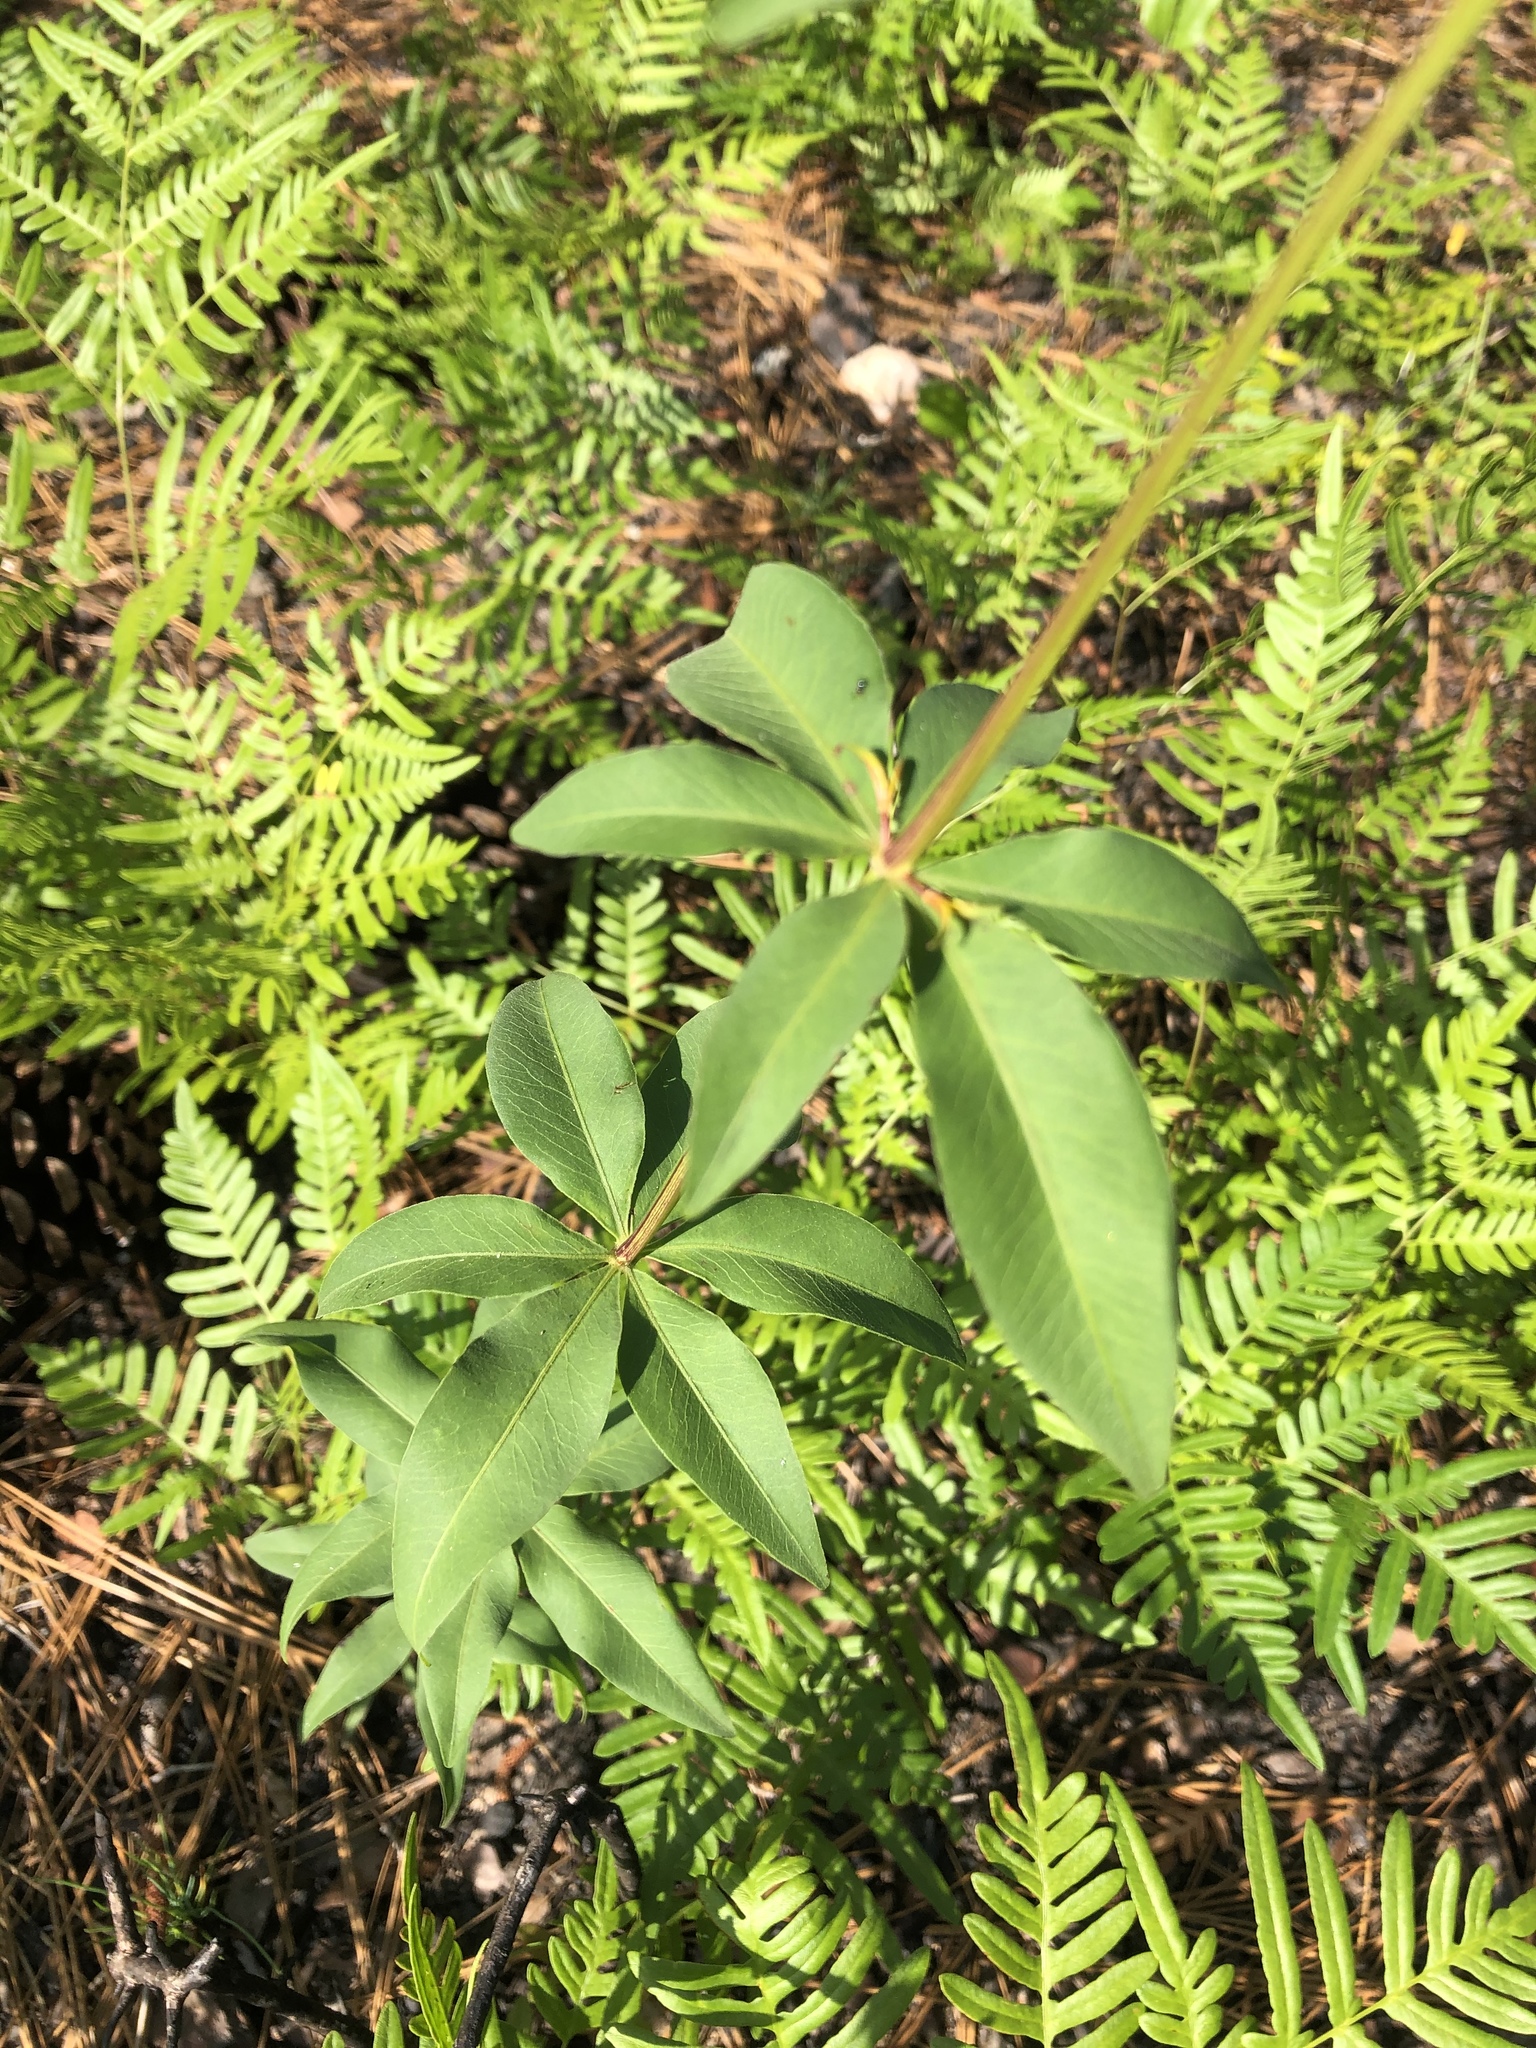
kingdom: Plantae
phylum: Tracheophyta
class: Magnoliopsida
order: Asterales
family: Asteraceae
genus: Coreopsis
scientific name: Coreopsis major
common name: Forest tickseed
